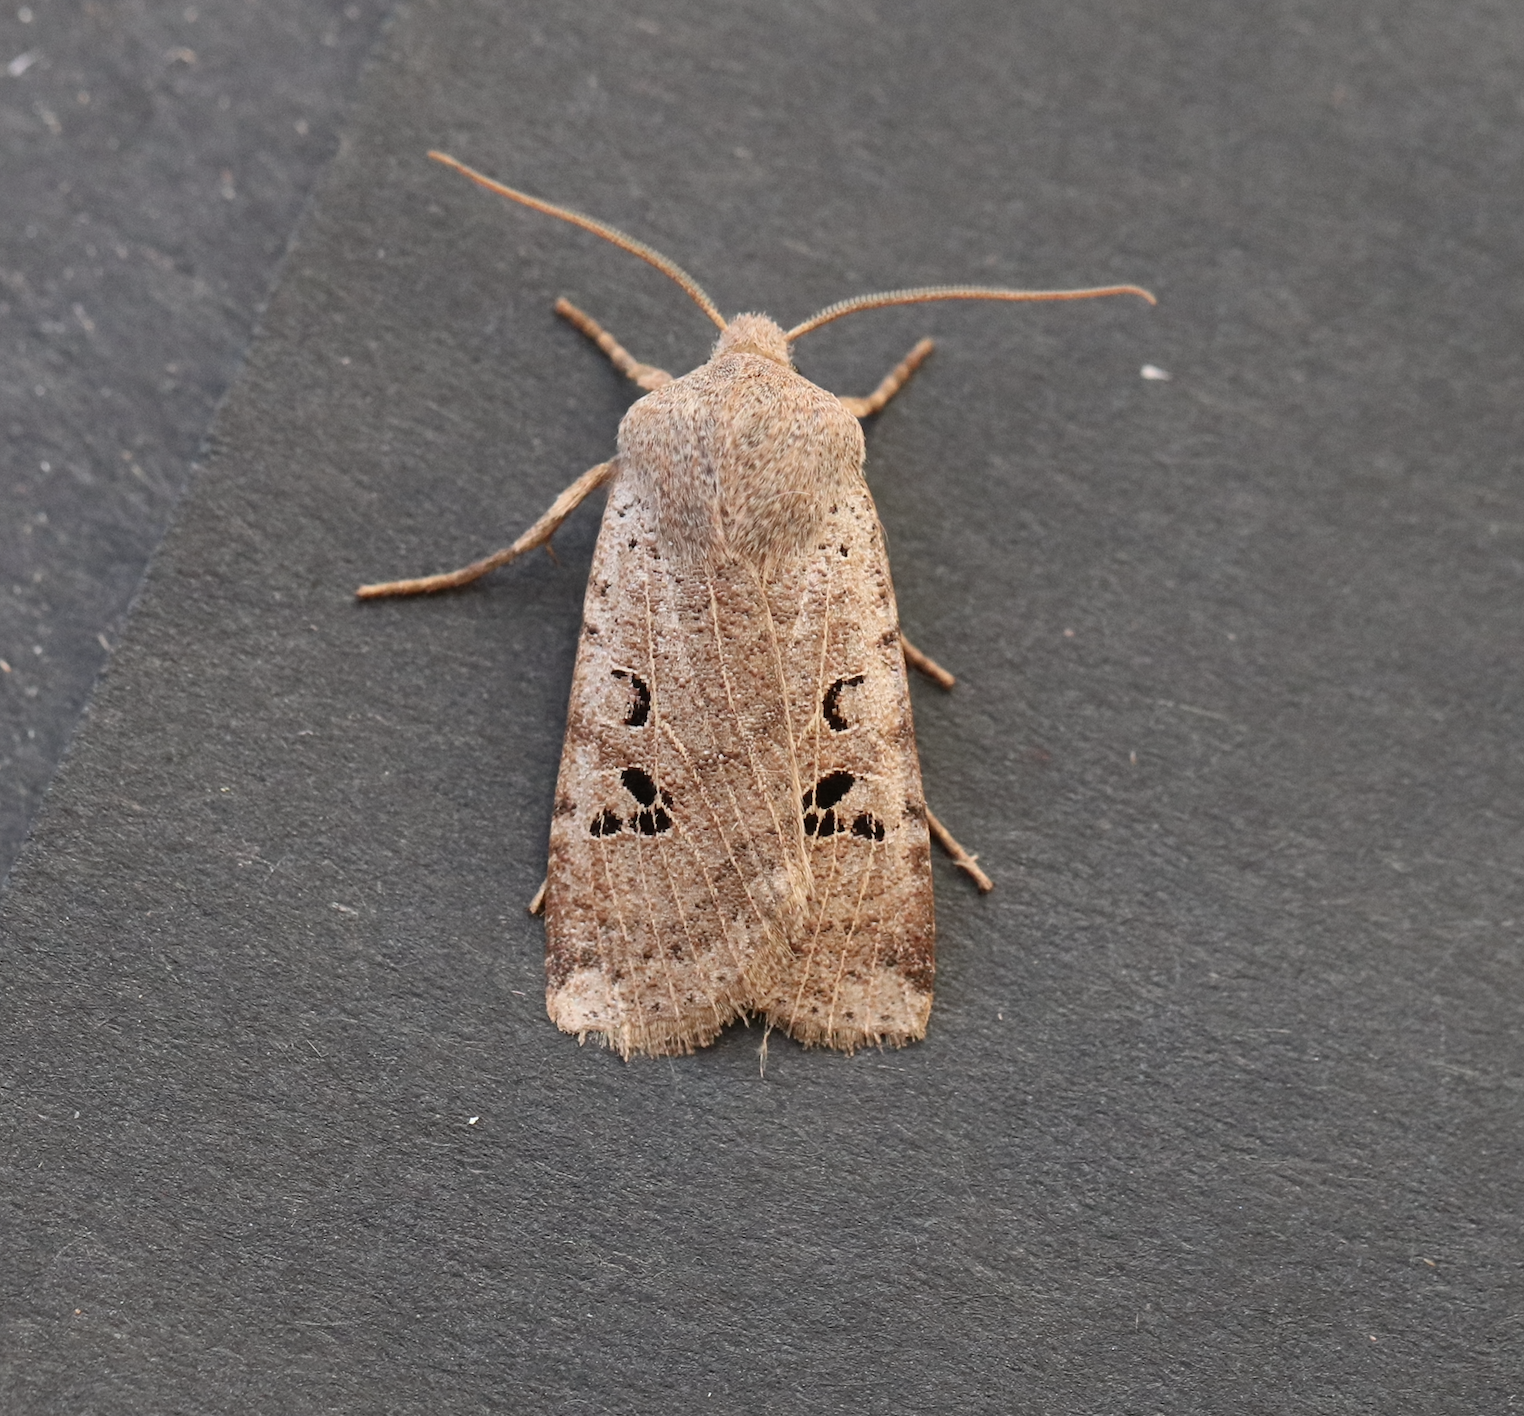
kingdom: Animalia
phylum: Arthropoda
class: Insecta
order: Lepidoptera
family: Noctuidae
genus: Conistra
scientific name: Conistra rubiginosa
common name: Black-spotted chestnut
